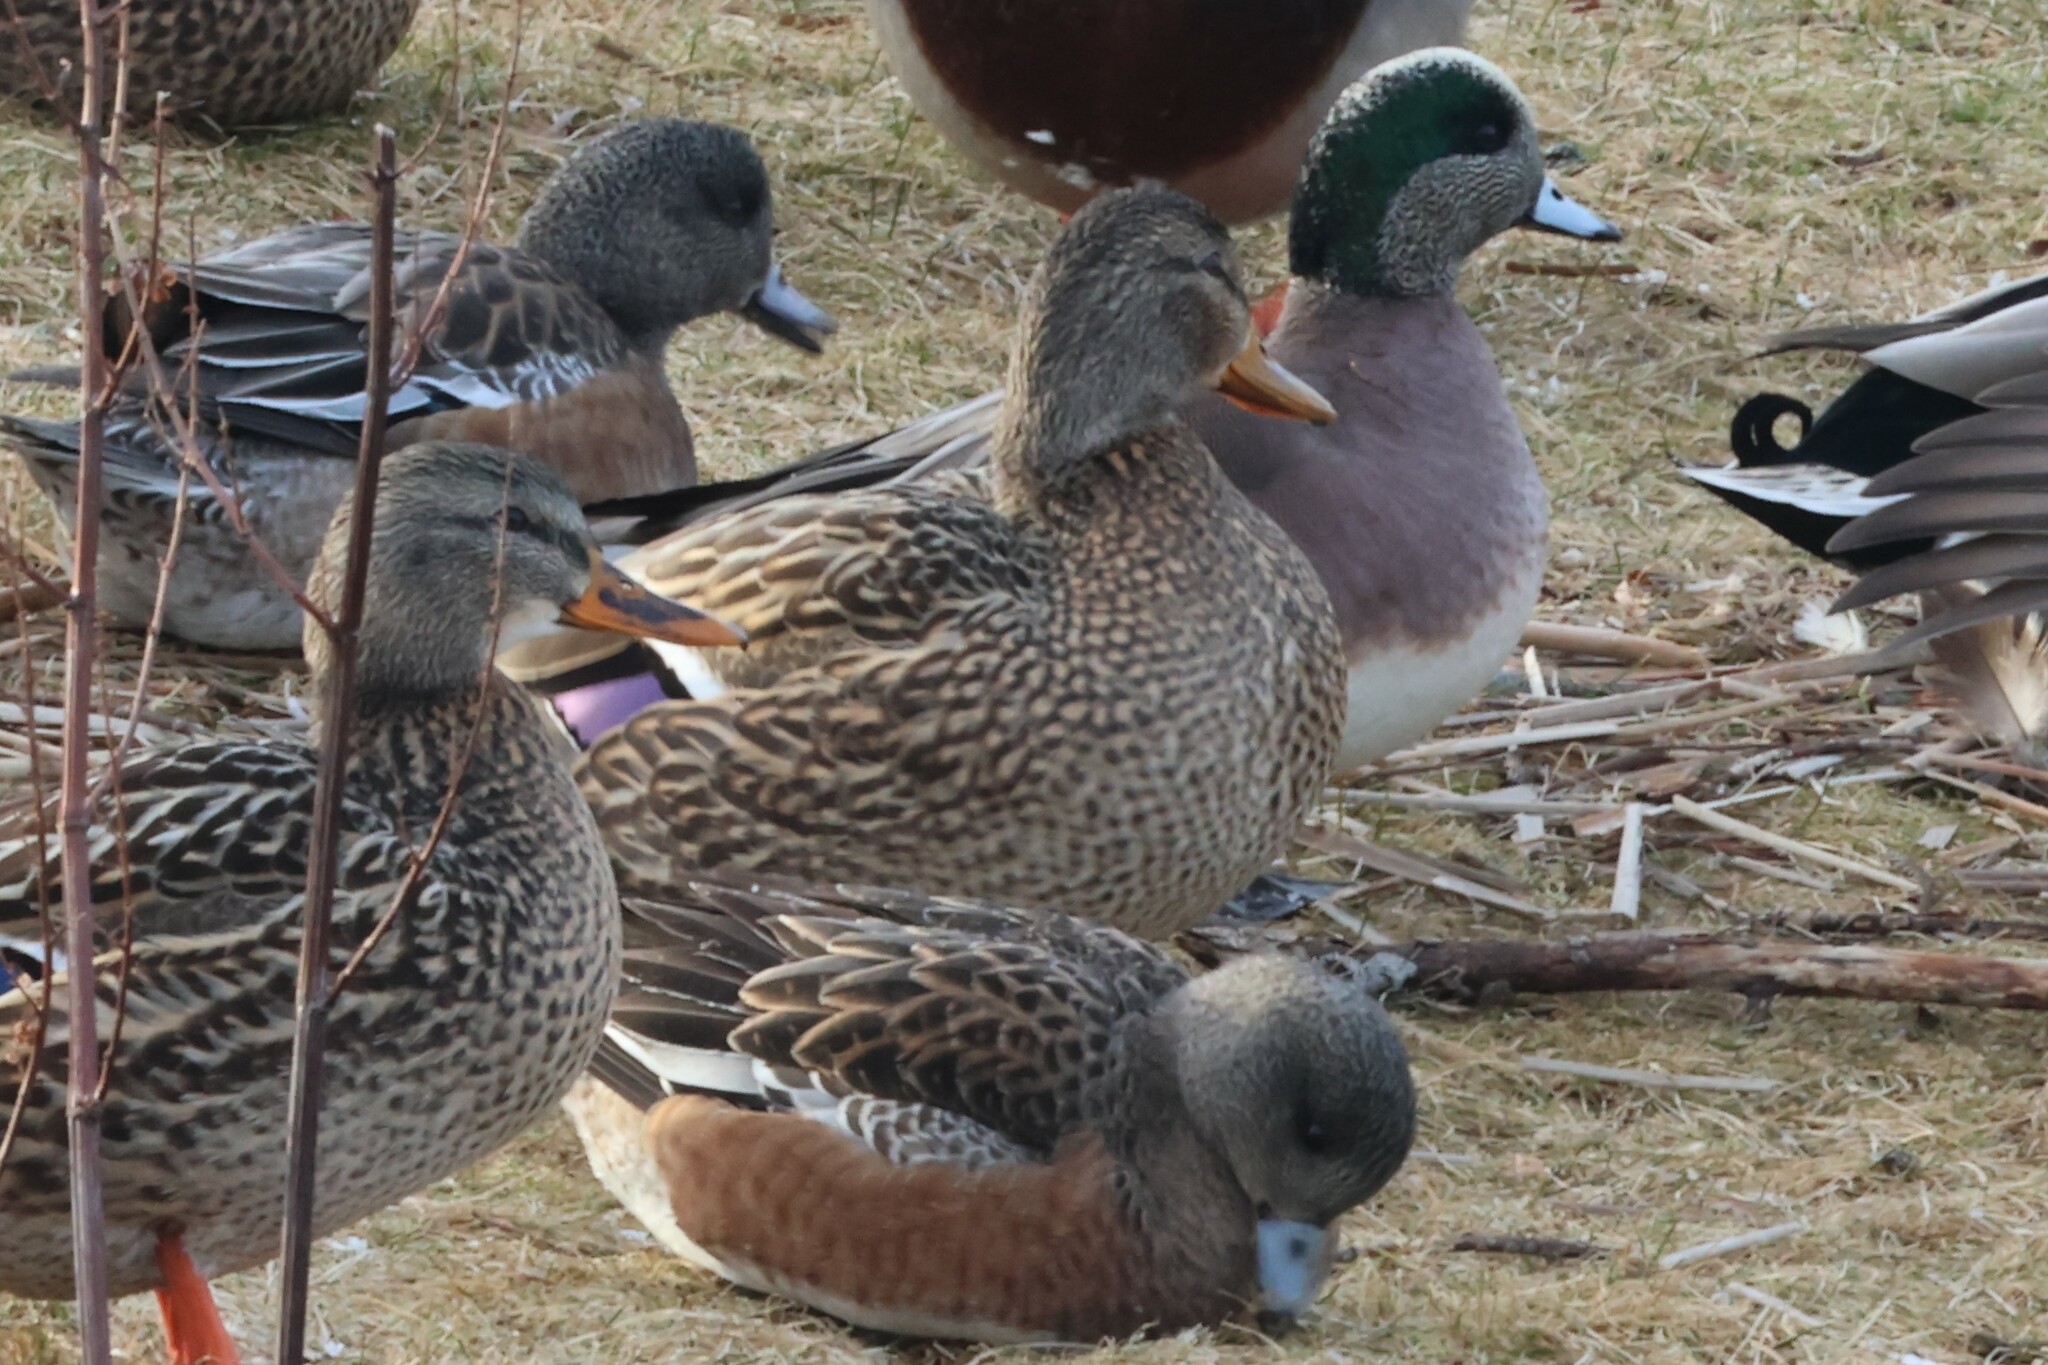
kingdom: Animalia
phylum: Chordata
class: Aves
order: Anseriformes
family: Anatidae
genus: Mareca
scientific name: Mareca americana
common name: American wigeon
